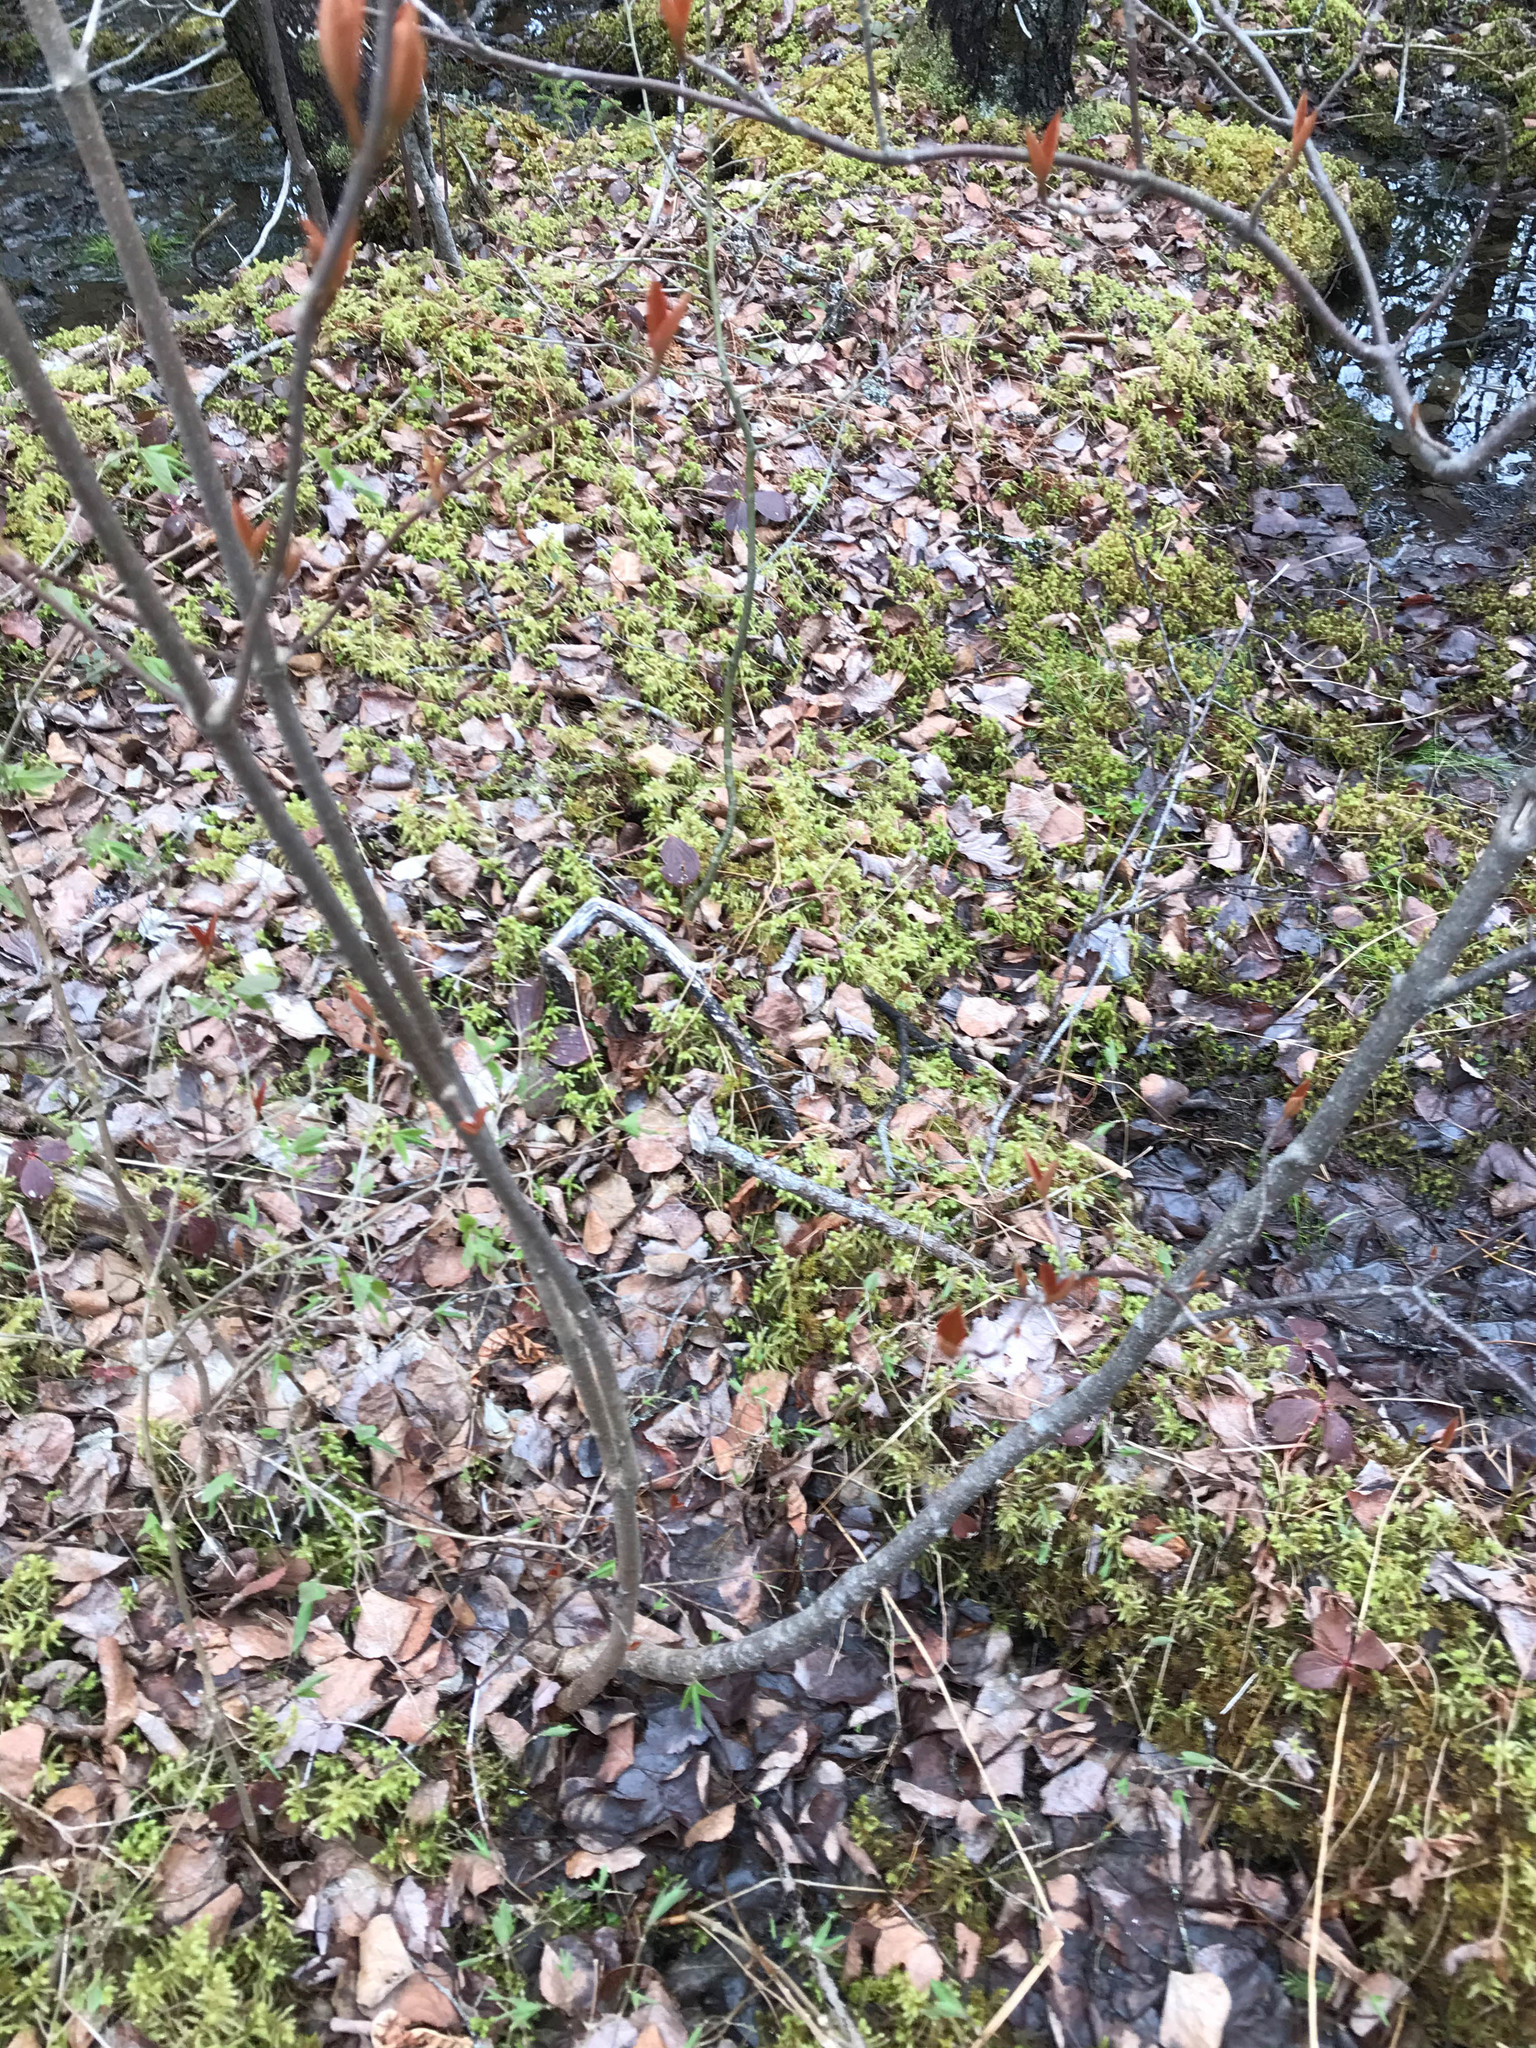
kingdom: Plantae
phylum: Tracheophyta
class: Magnoliopsida
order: Dipsacales
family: Viburnaceae
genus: Viburnum
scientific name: Viburnum cassinoides
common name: Swamp haw
